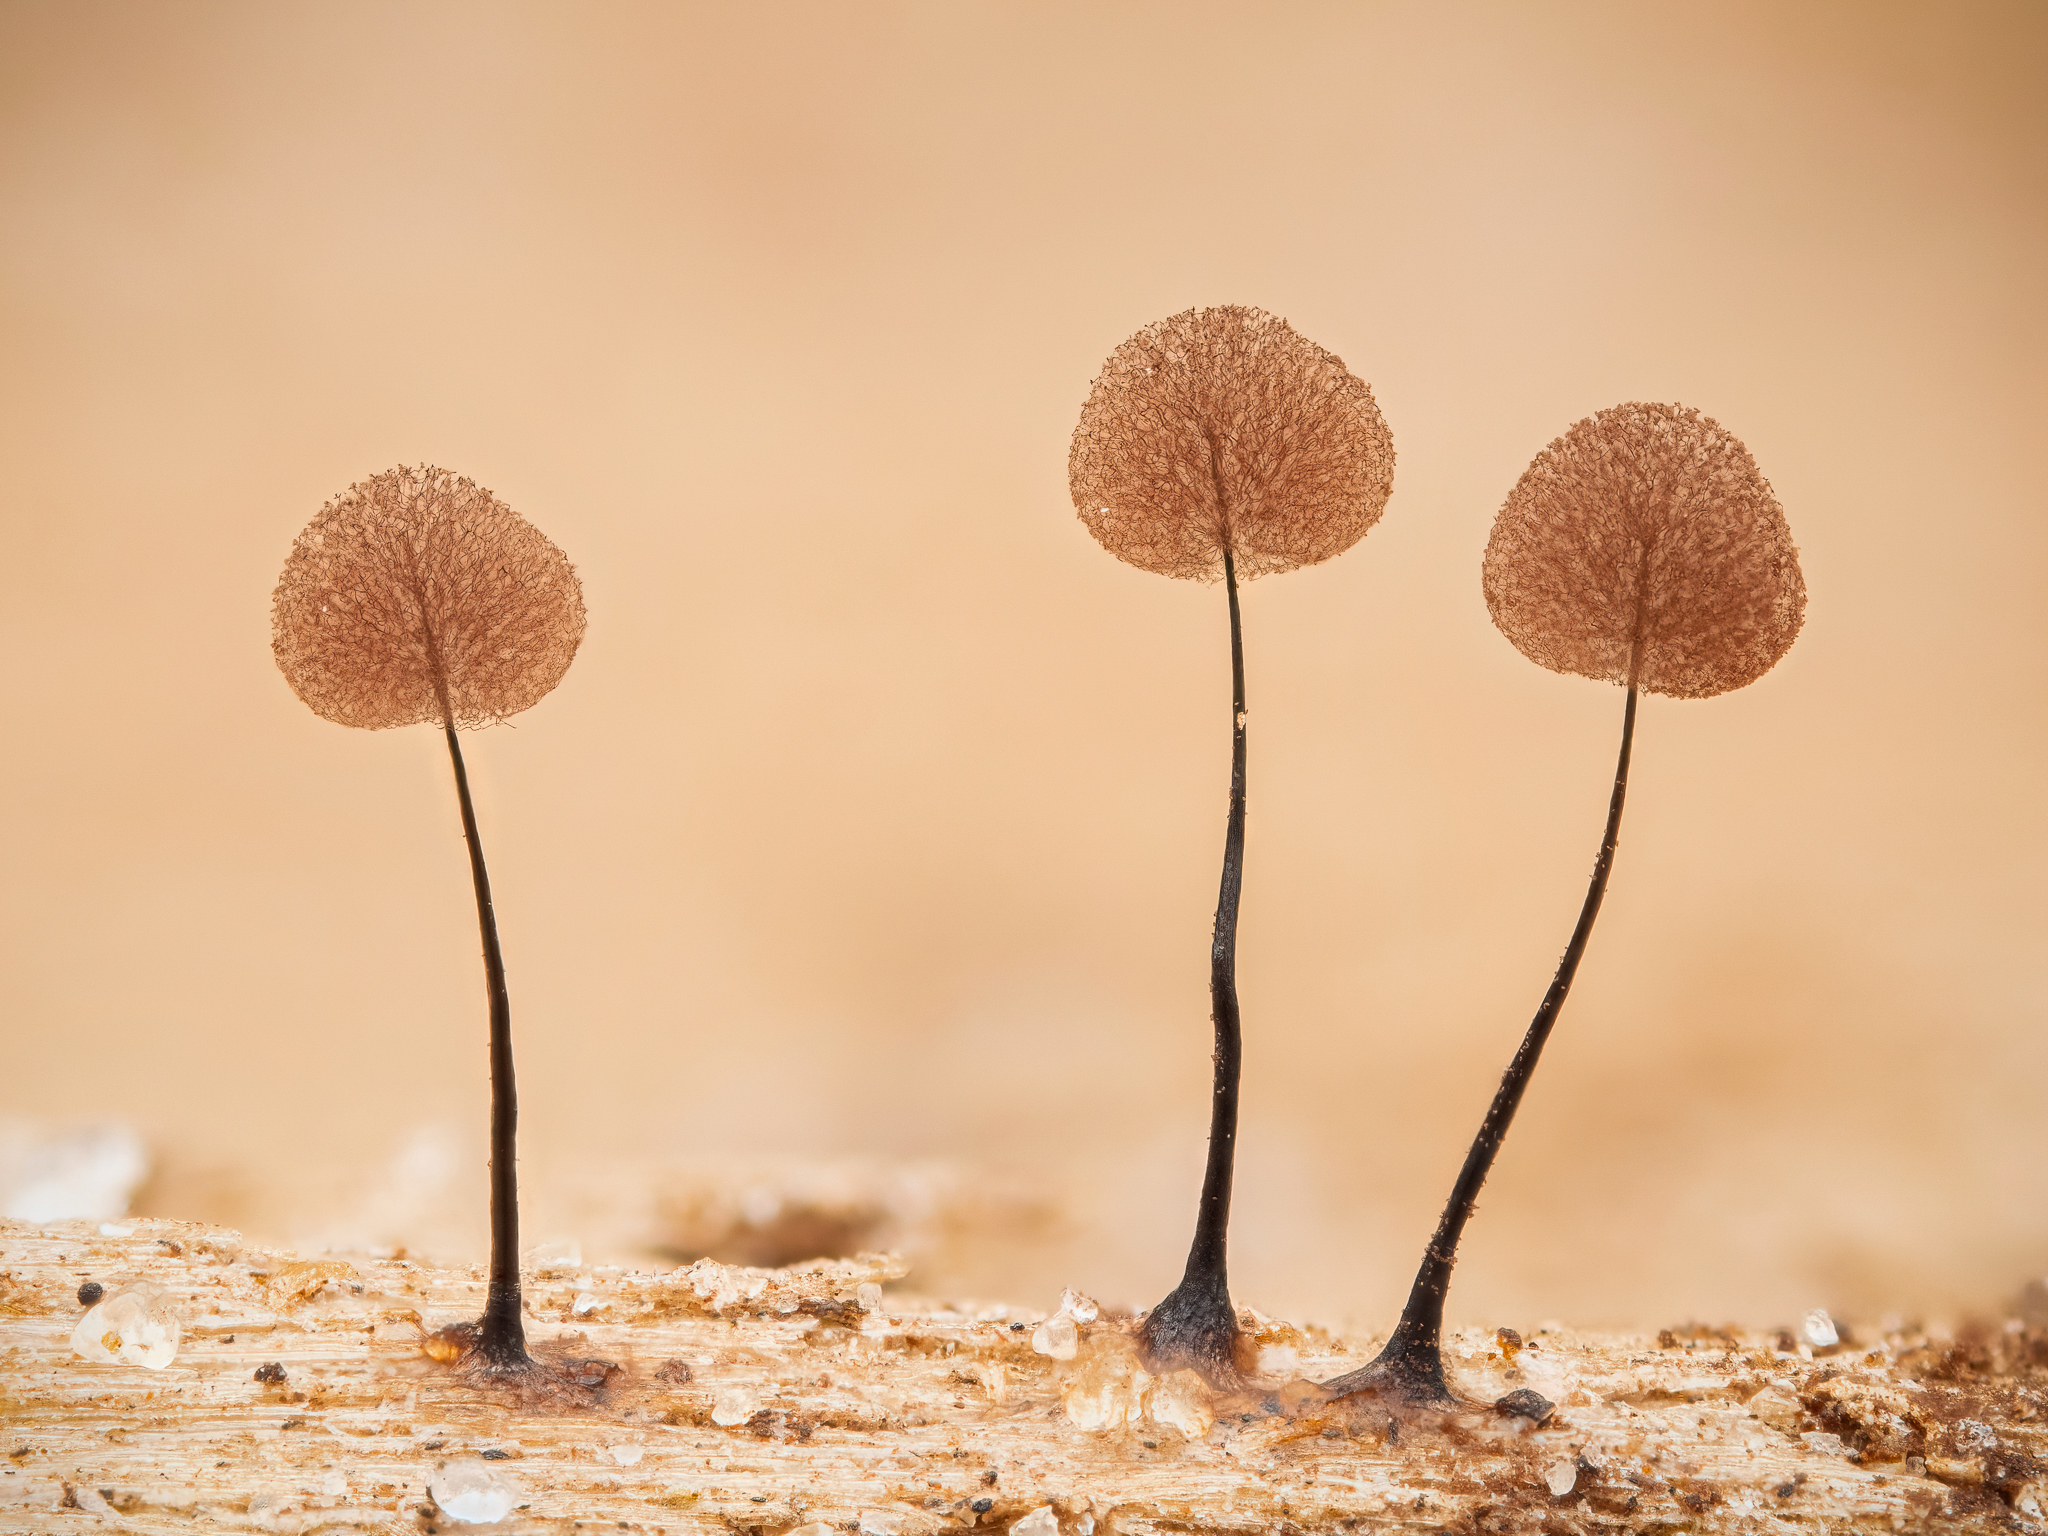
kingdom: Protozoa
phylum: Mycetozoa
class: Myxomycetes
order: Stemonitidales
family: Stemonitidaceae
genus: Comatricha
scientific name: Comatricha nigra
